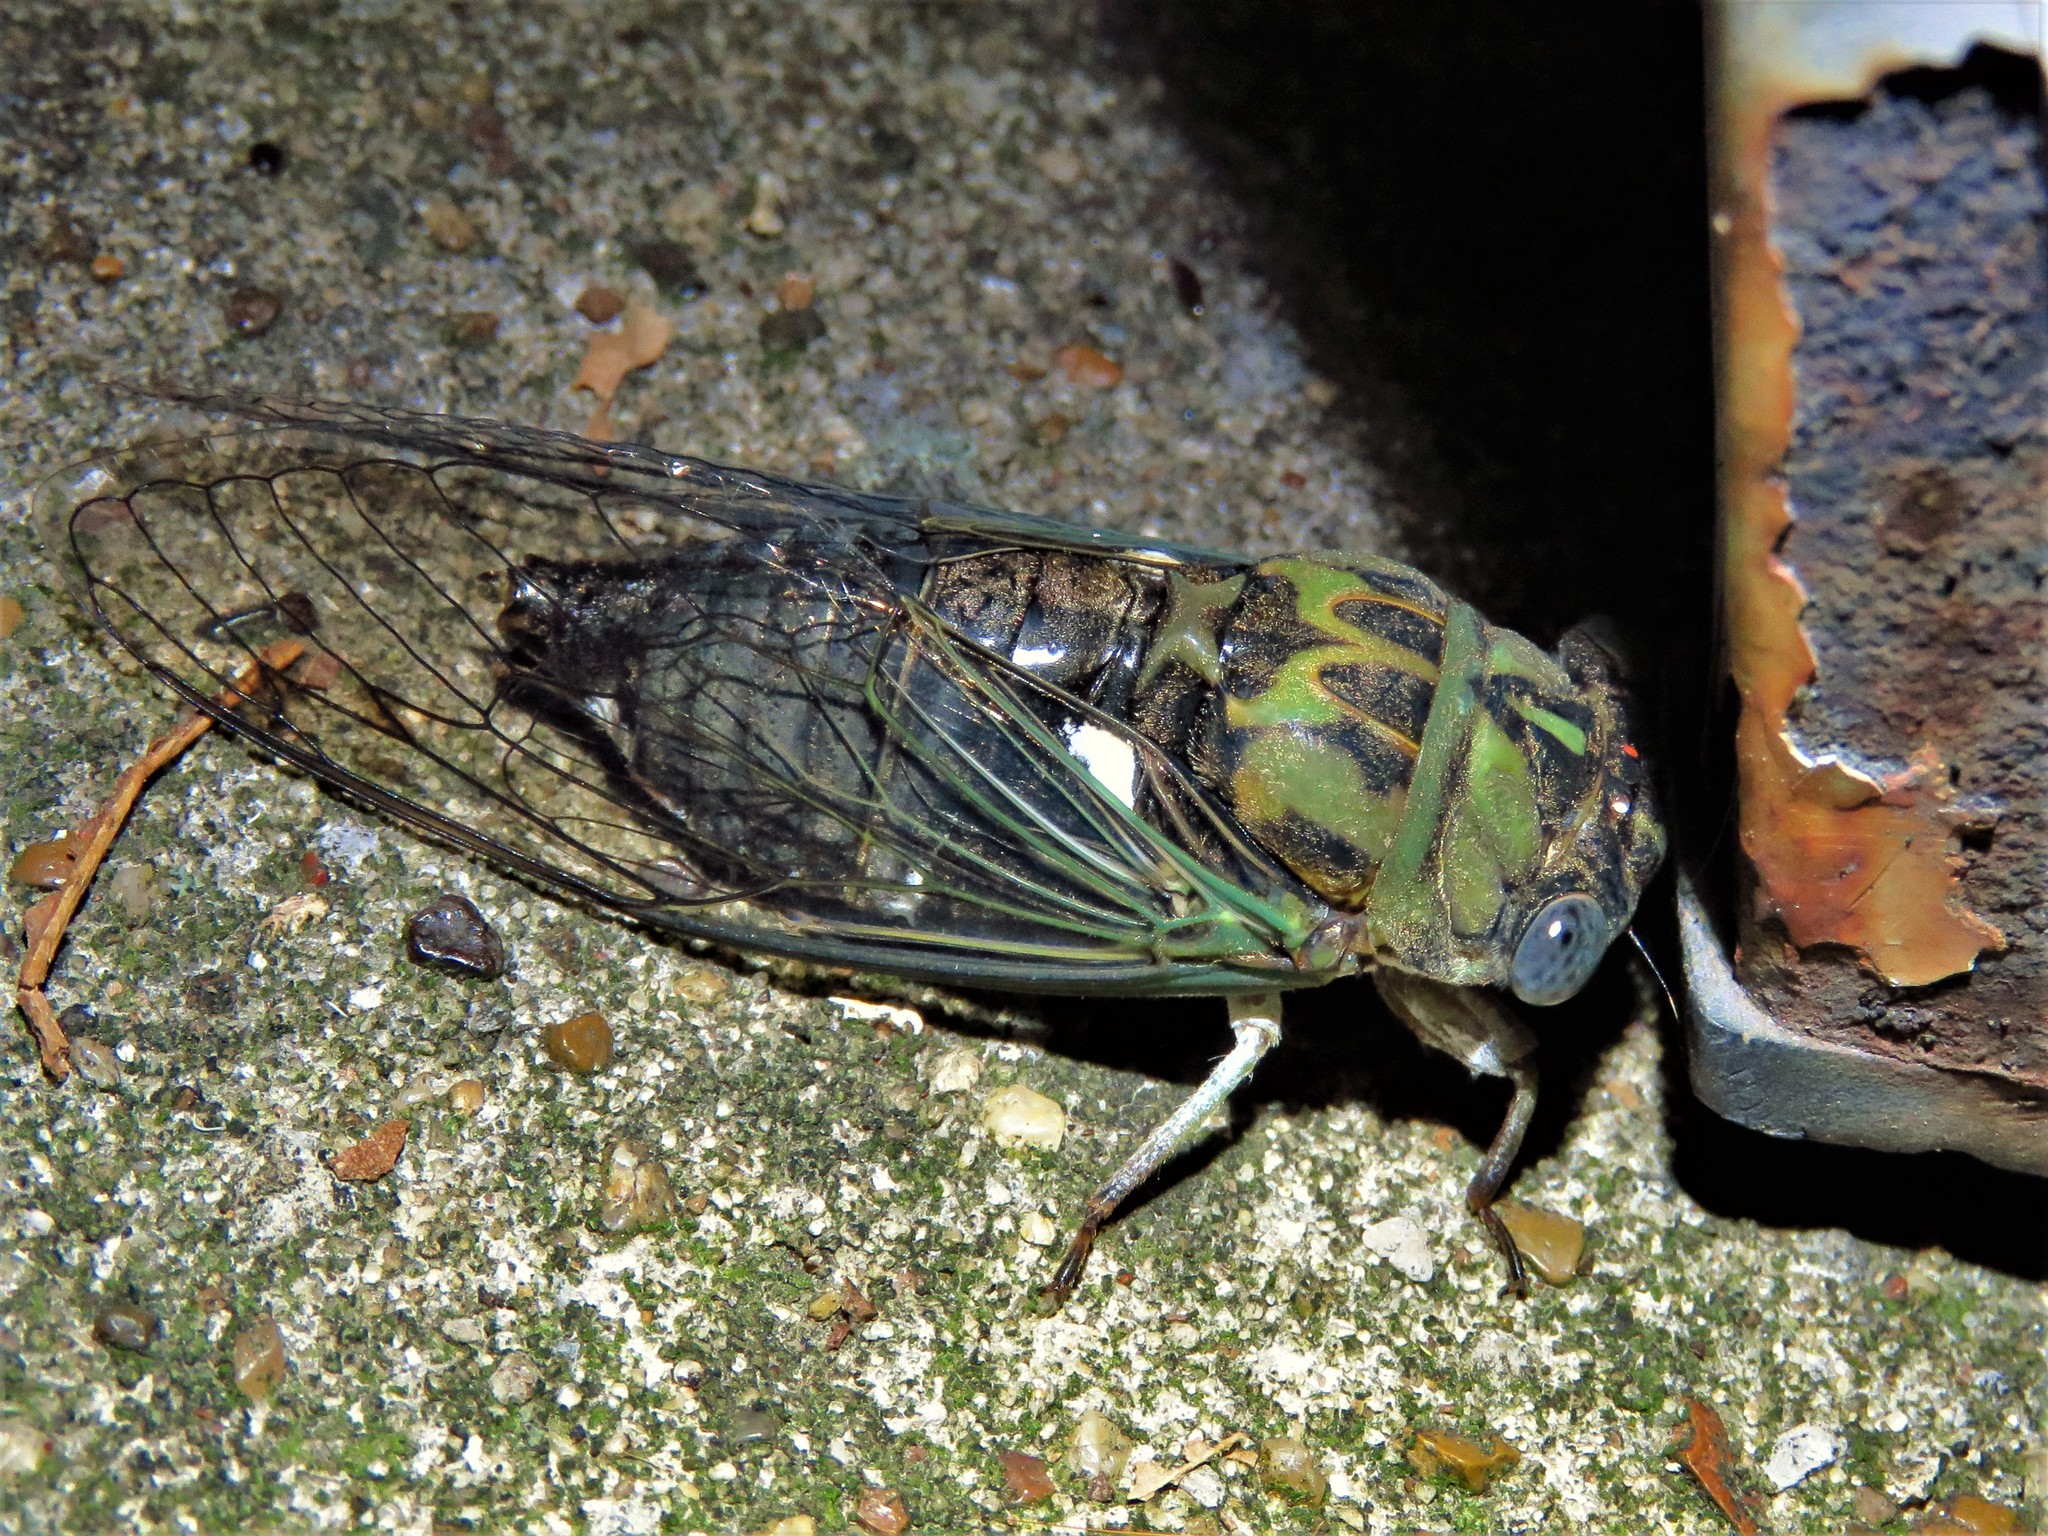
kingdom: Animalia
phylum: Arthropoda
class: Insecta
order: Hemiptera
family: Cicadidae
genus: Neotibicen
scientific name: Neotibicen pruinosus
